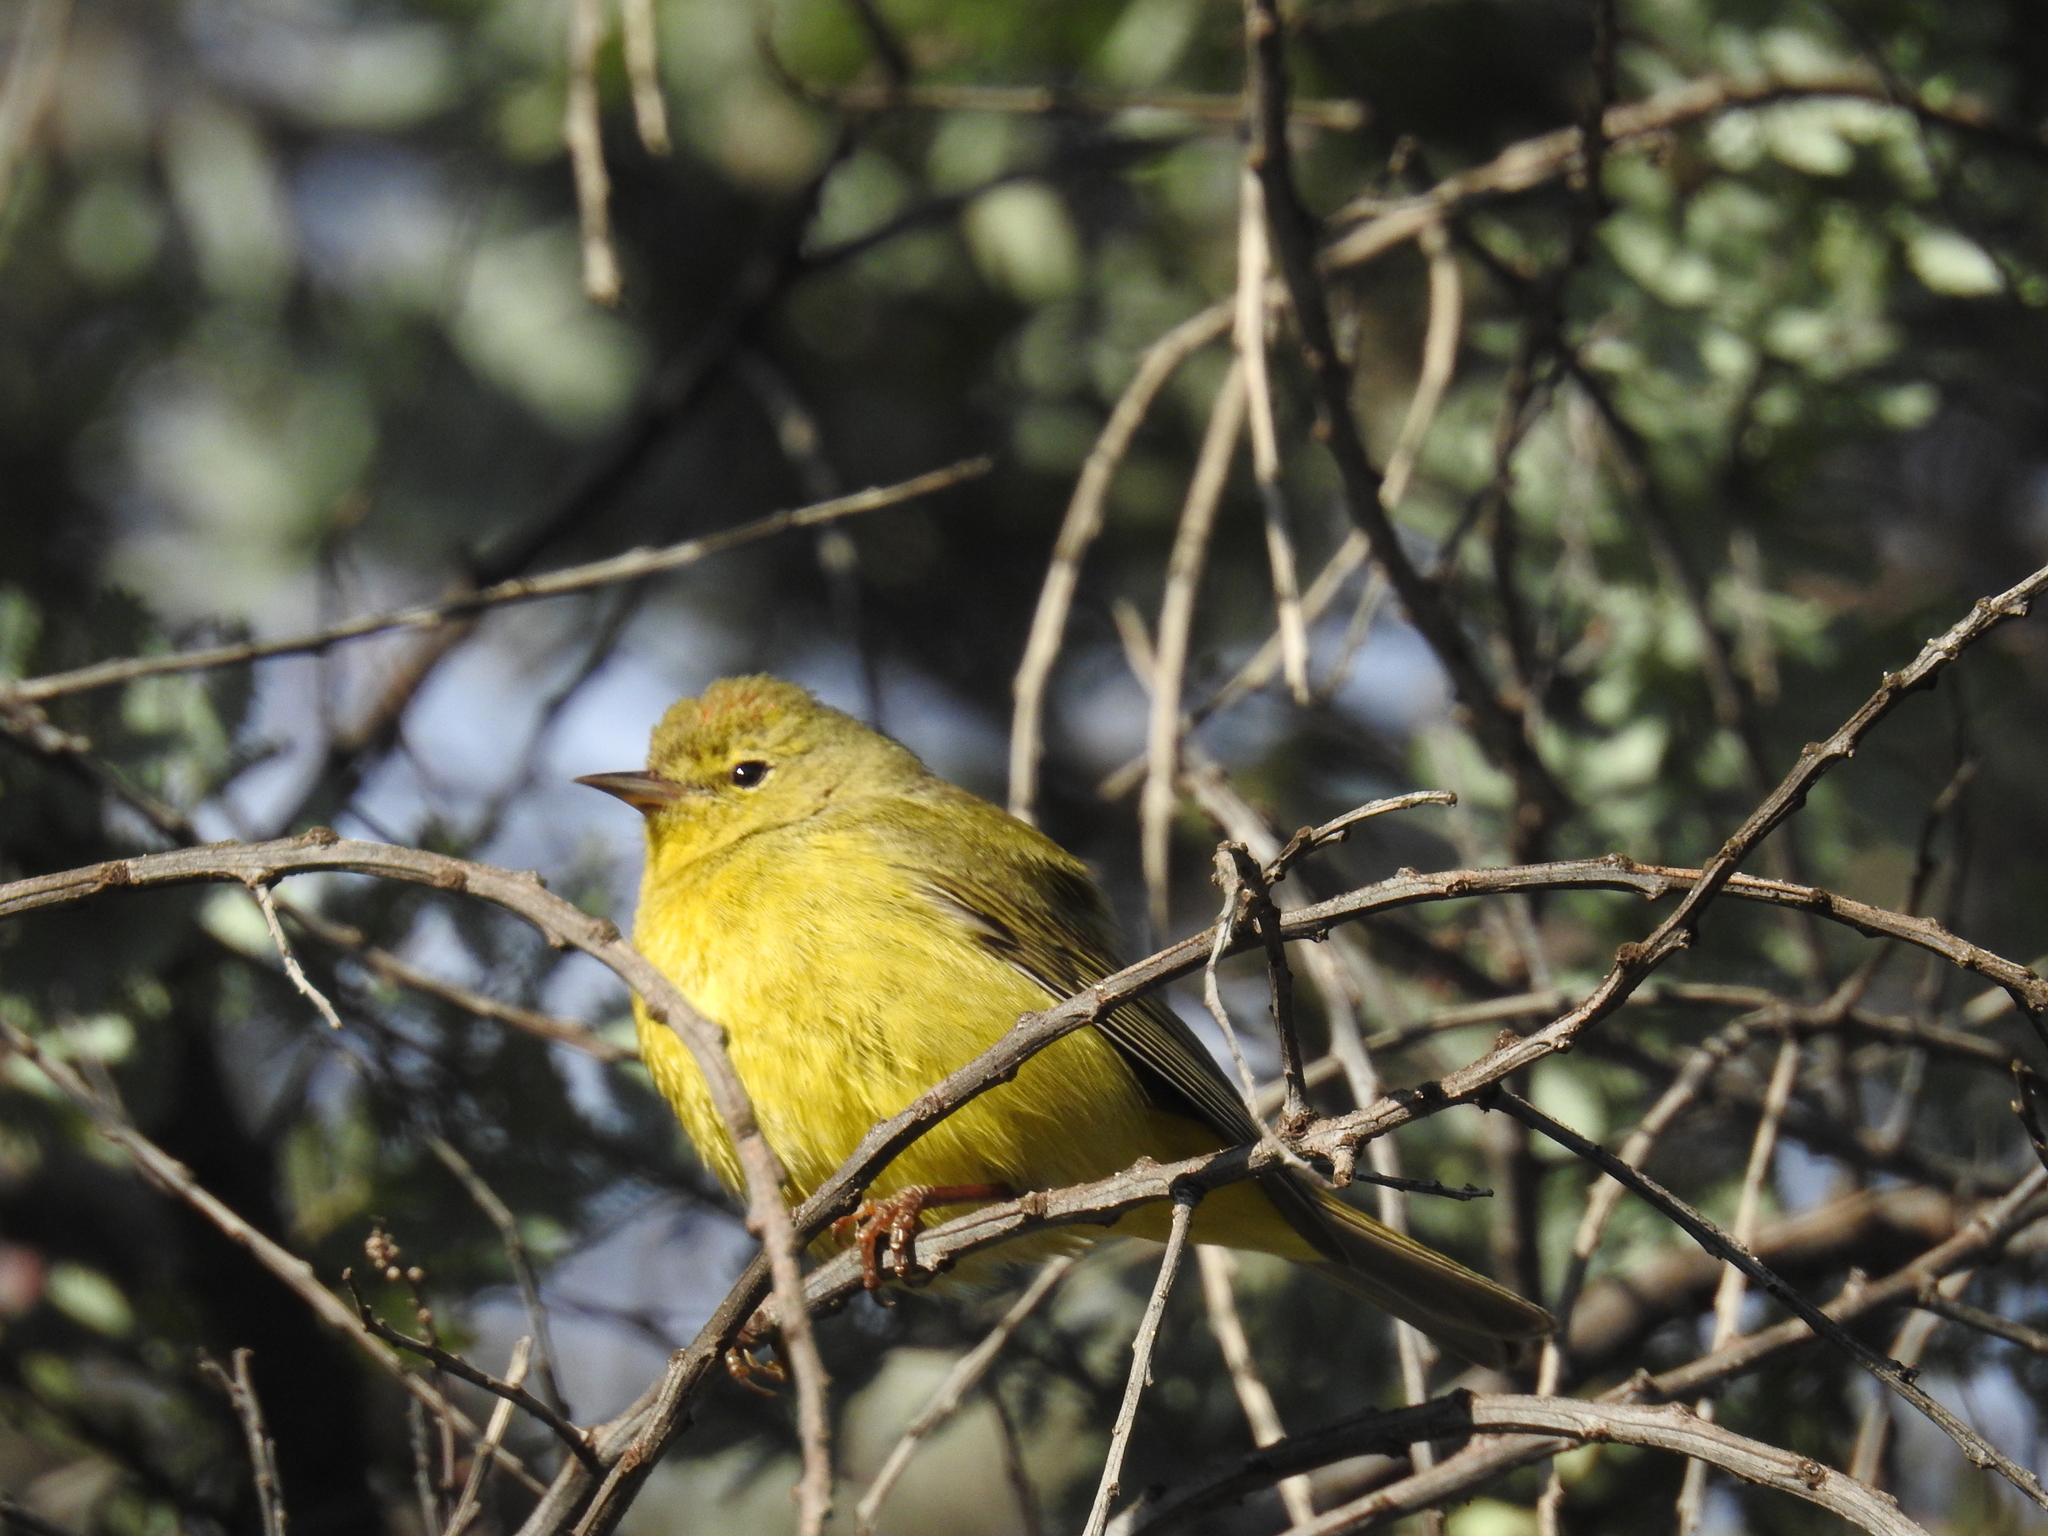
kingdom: Animalia
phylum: Chordata
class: Aves
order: Passeriformes
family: Parulidae
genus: Leiothlypis
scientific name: Leiothlypis celata
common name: Orange-crowned warbler
